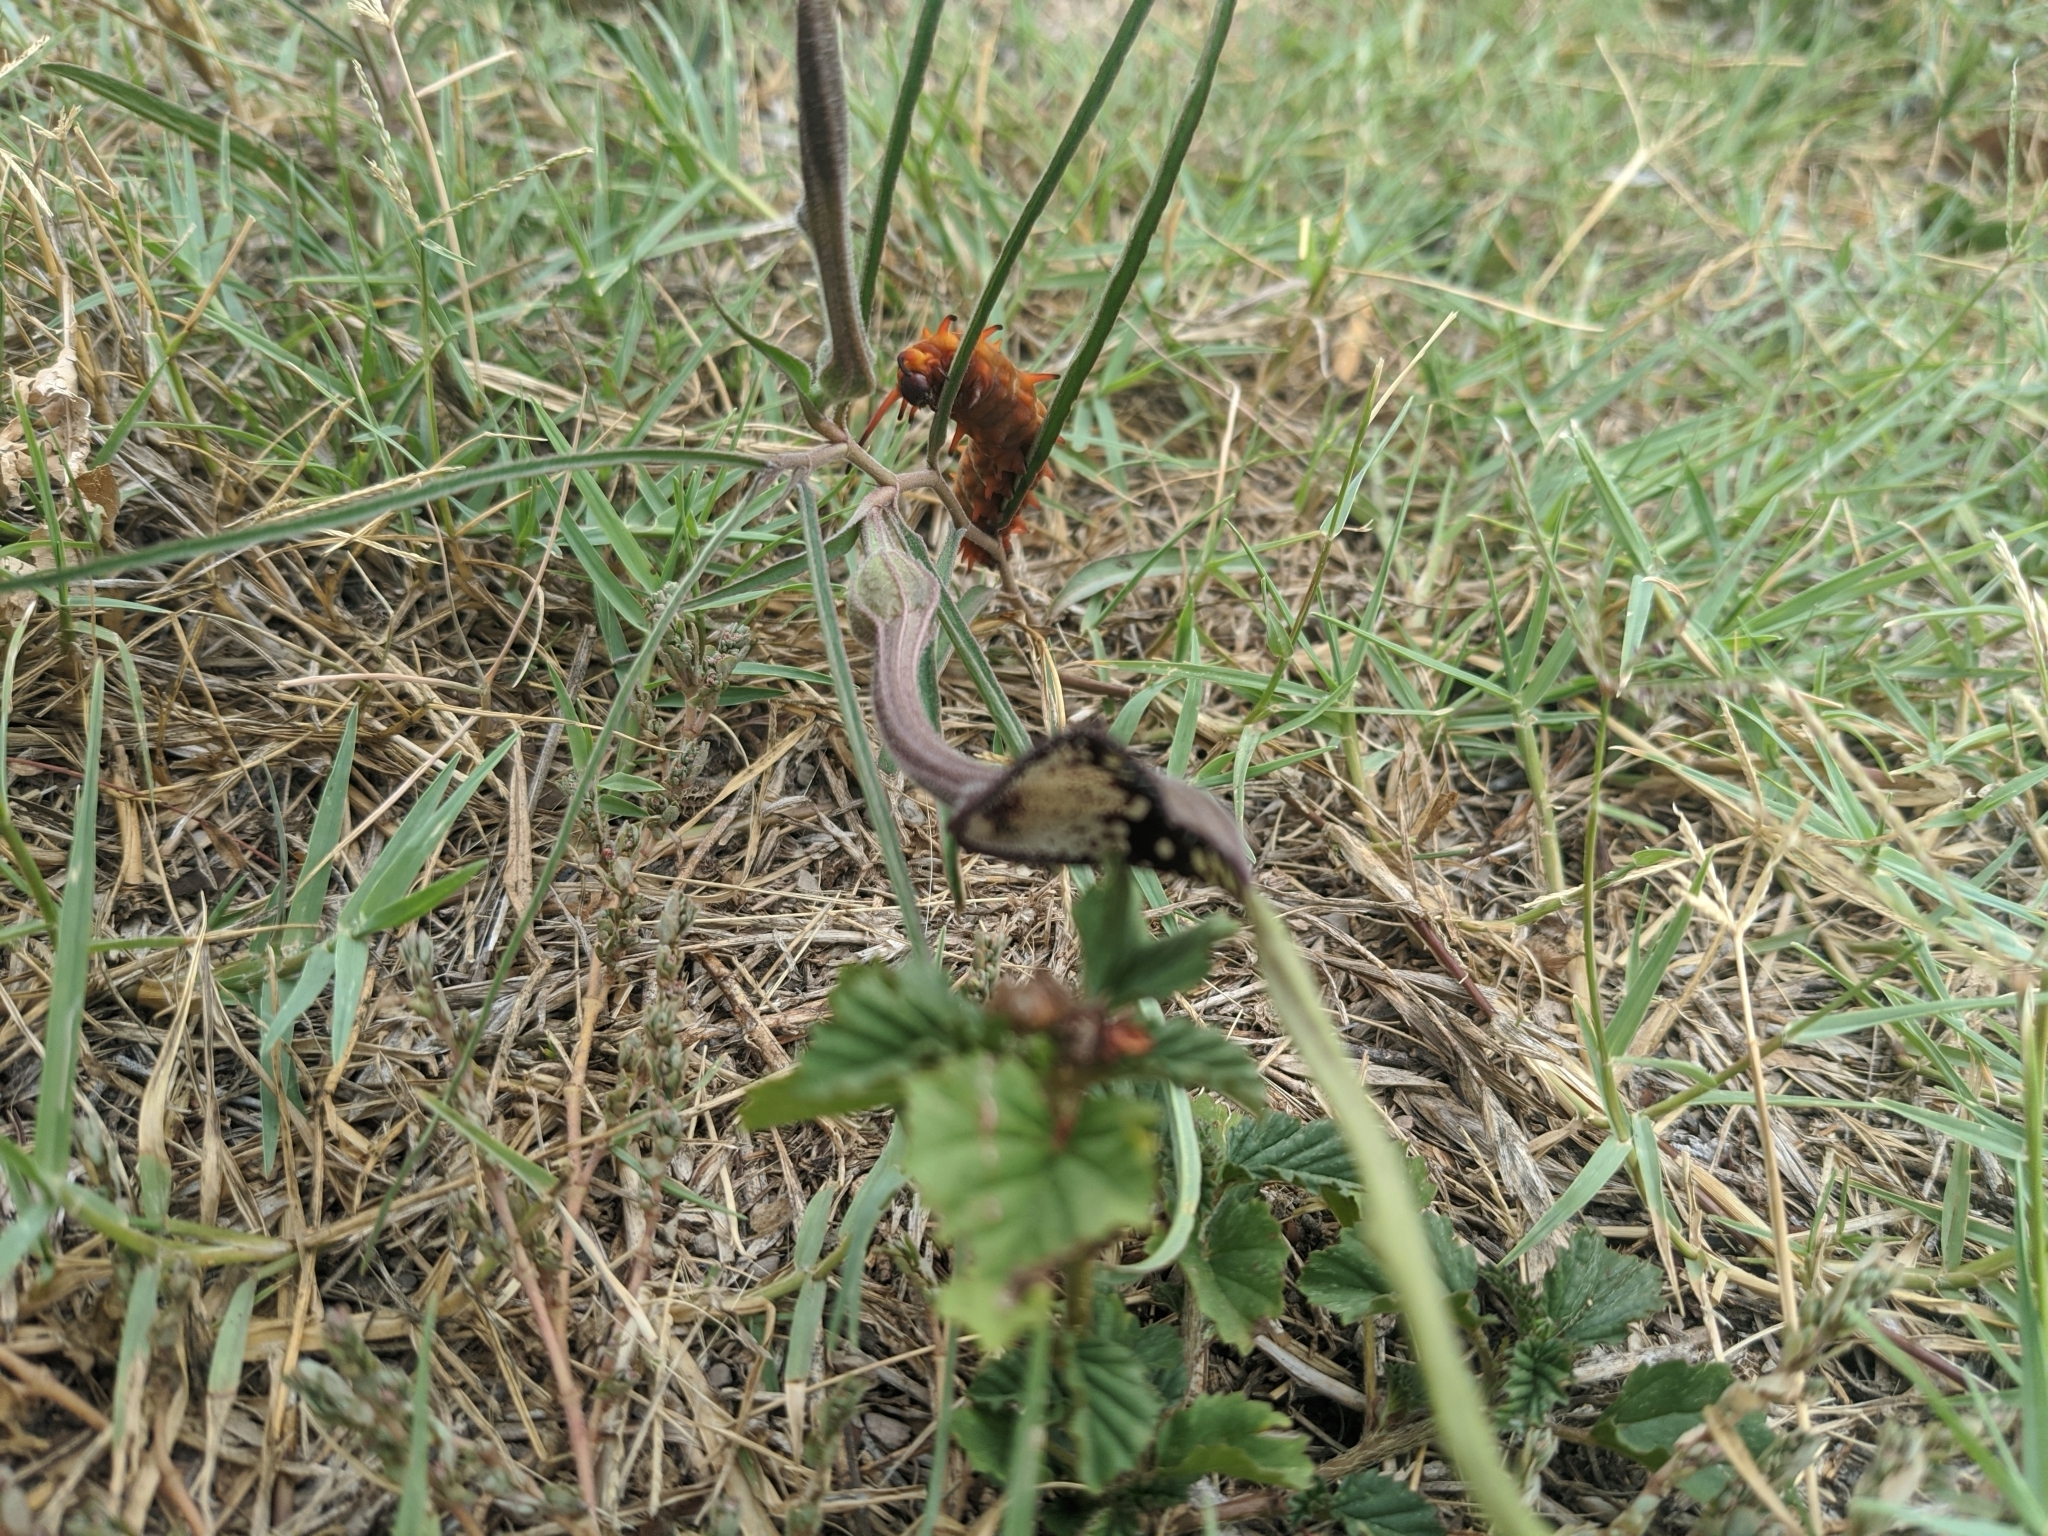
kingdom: Plantae
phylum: Tracheophyta
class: Magnoliopsida
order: Piperales
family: Aristolochiaceae
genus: Aristolochia
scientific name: Aristolochia erecta
